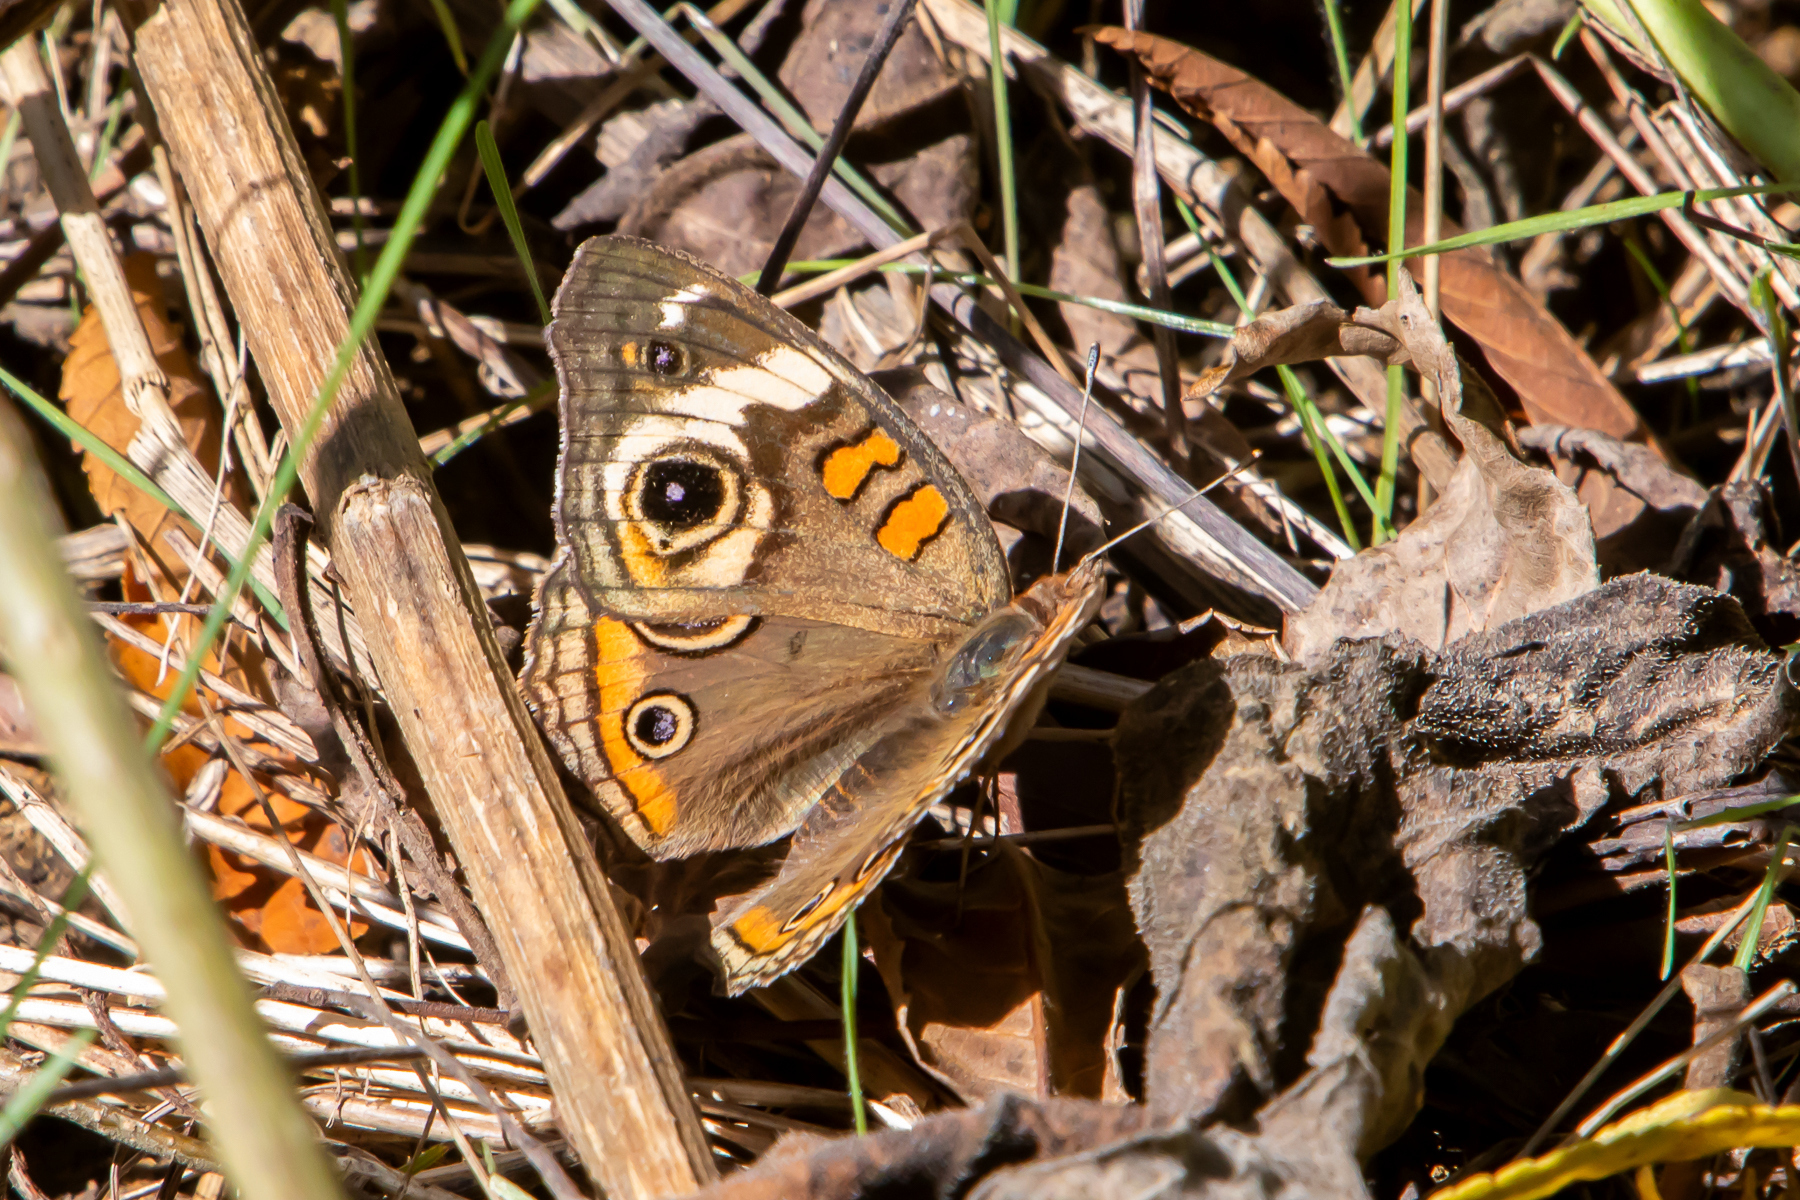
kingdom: Animalia
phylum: Arthropoda
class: Insecta
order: Lepidoptera
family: Nymphalidae
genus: Junonia
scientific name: Junonia coenia
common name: Common buckeye
